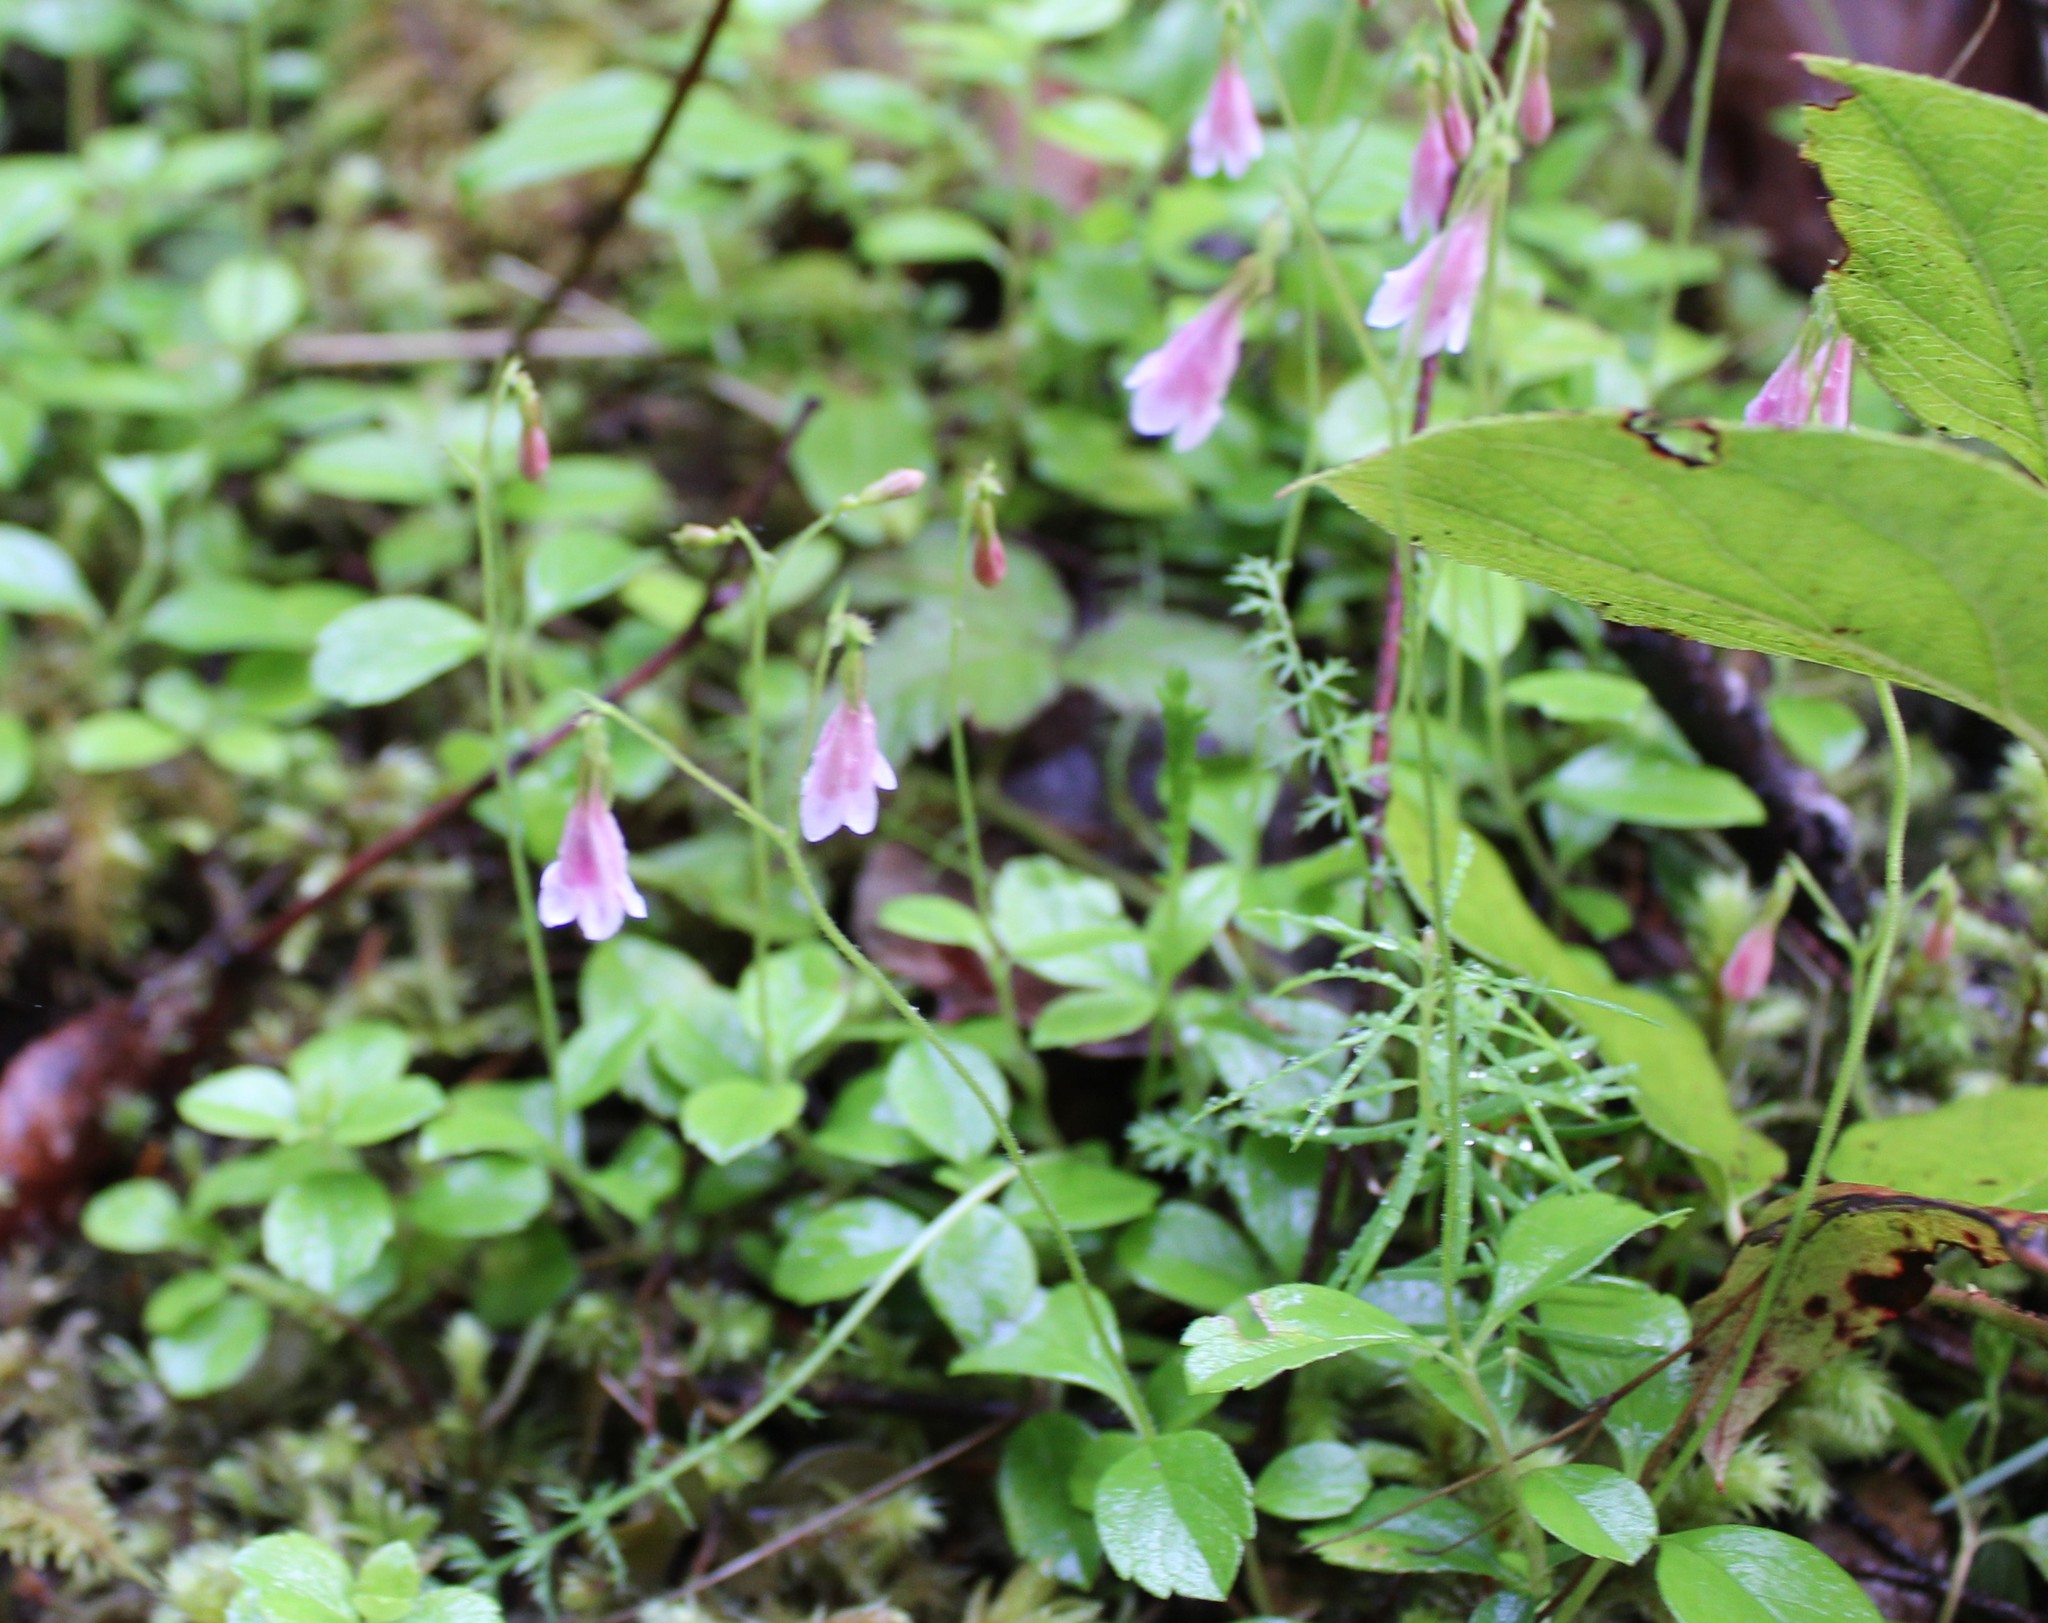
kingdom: Plantae
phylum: Tracheophyta
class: Magnoliopsida
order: Dipsacales
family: Caprifoliaceae
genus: Linnaea
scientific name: Linnaea borealis
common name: Twinflower
